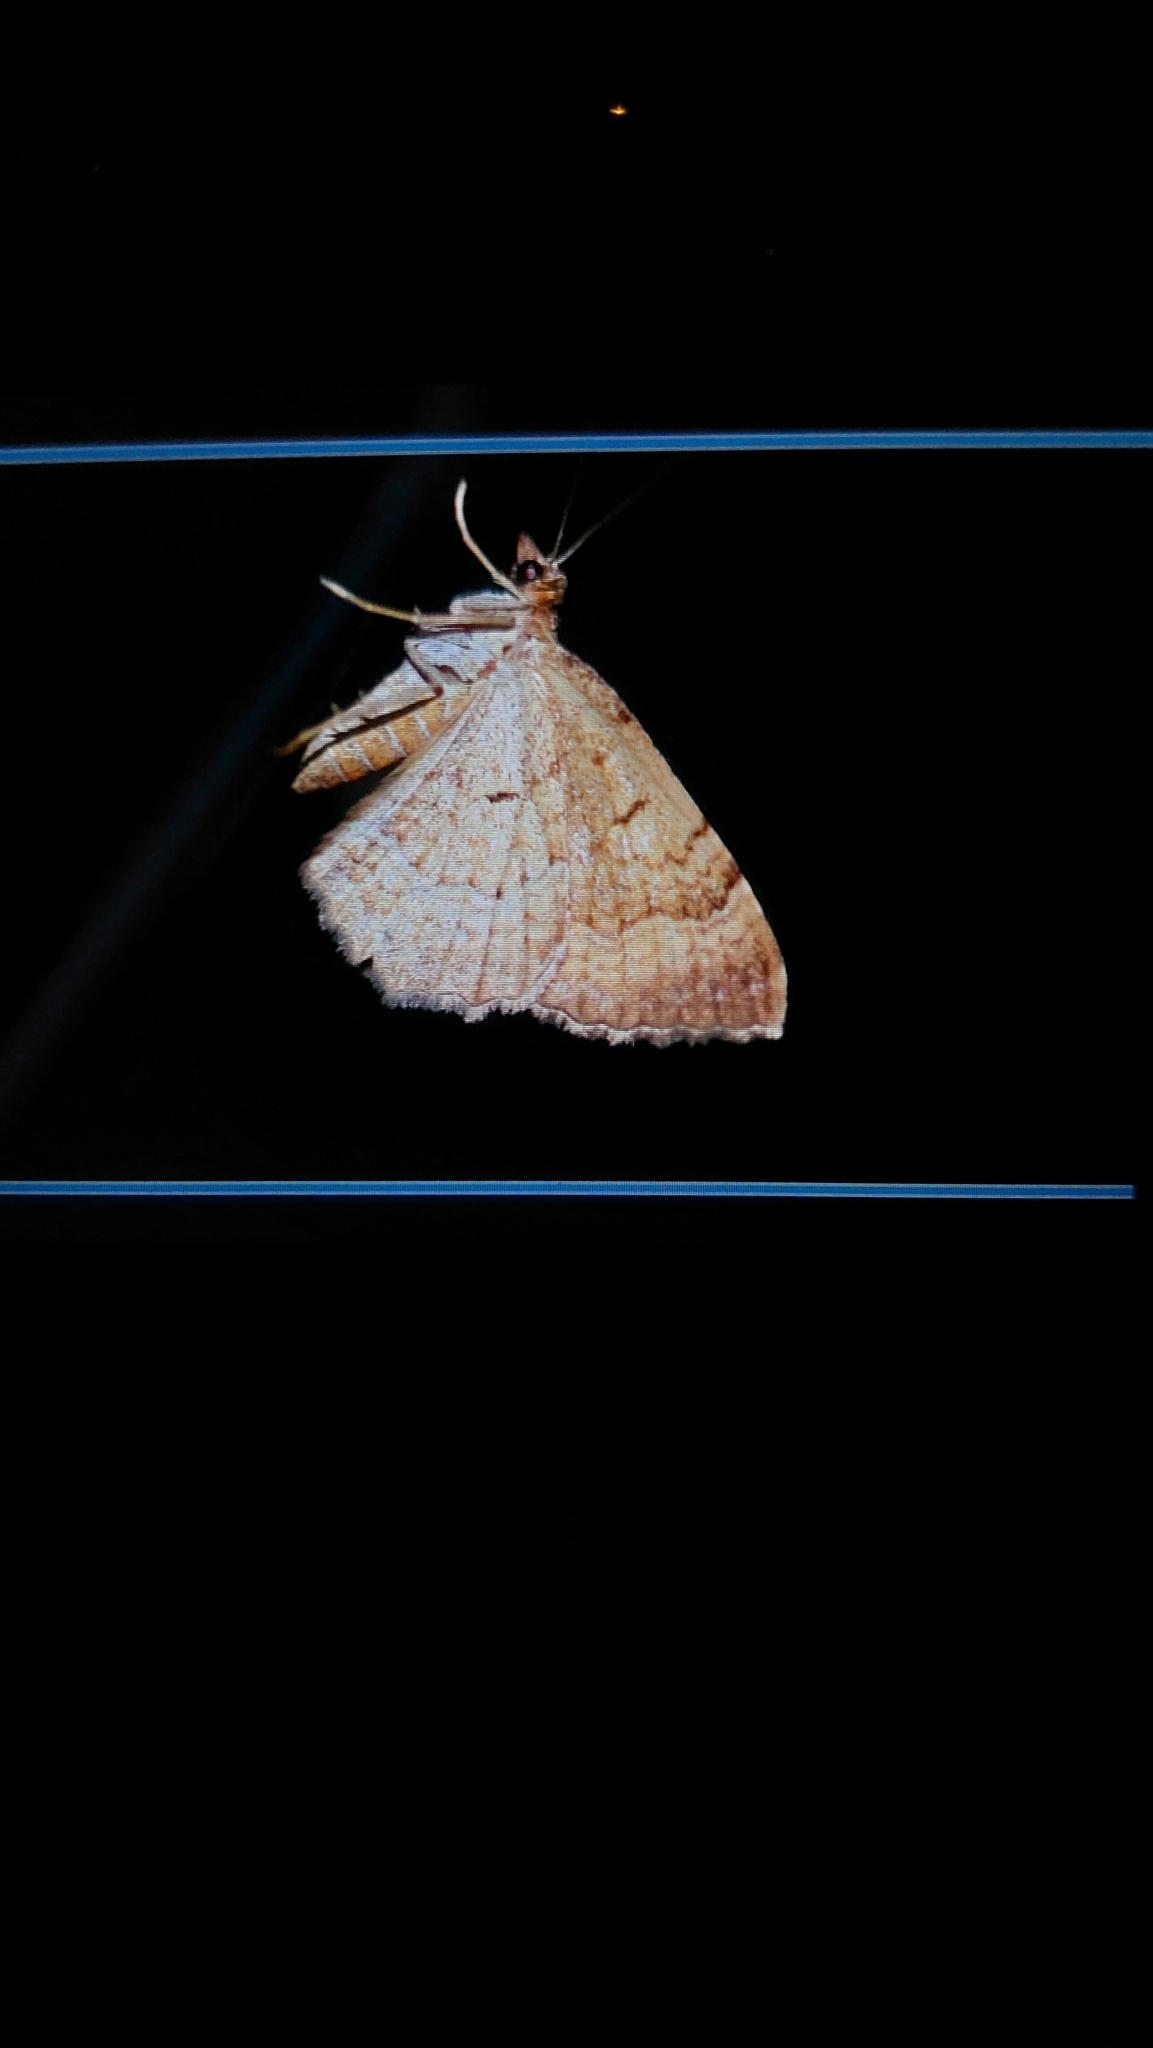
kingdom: Animalia
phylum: Arthropoda
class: Insecta
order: Lepidoptera
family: Geometridae
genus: Camptogramma
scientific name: Camptogramma bilineata
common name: Yellow shell
